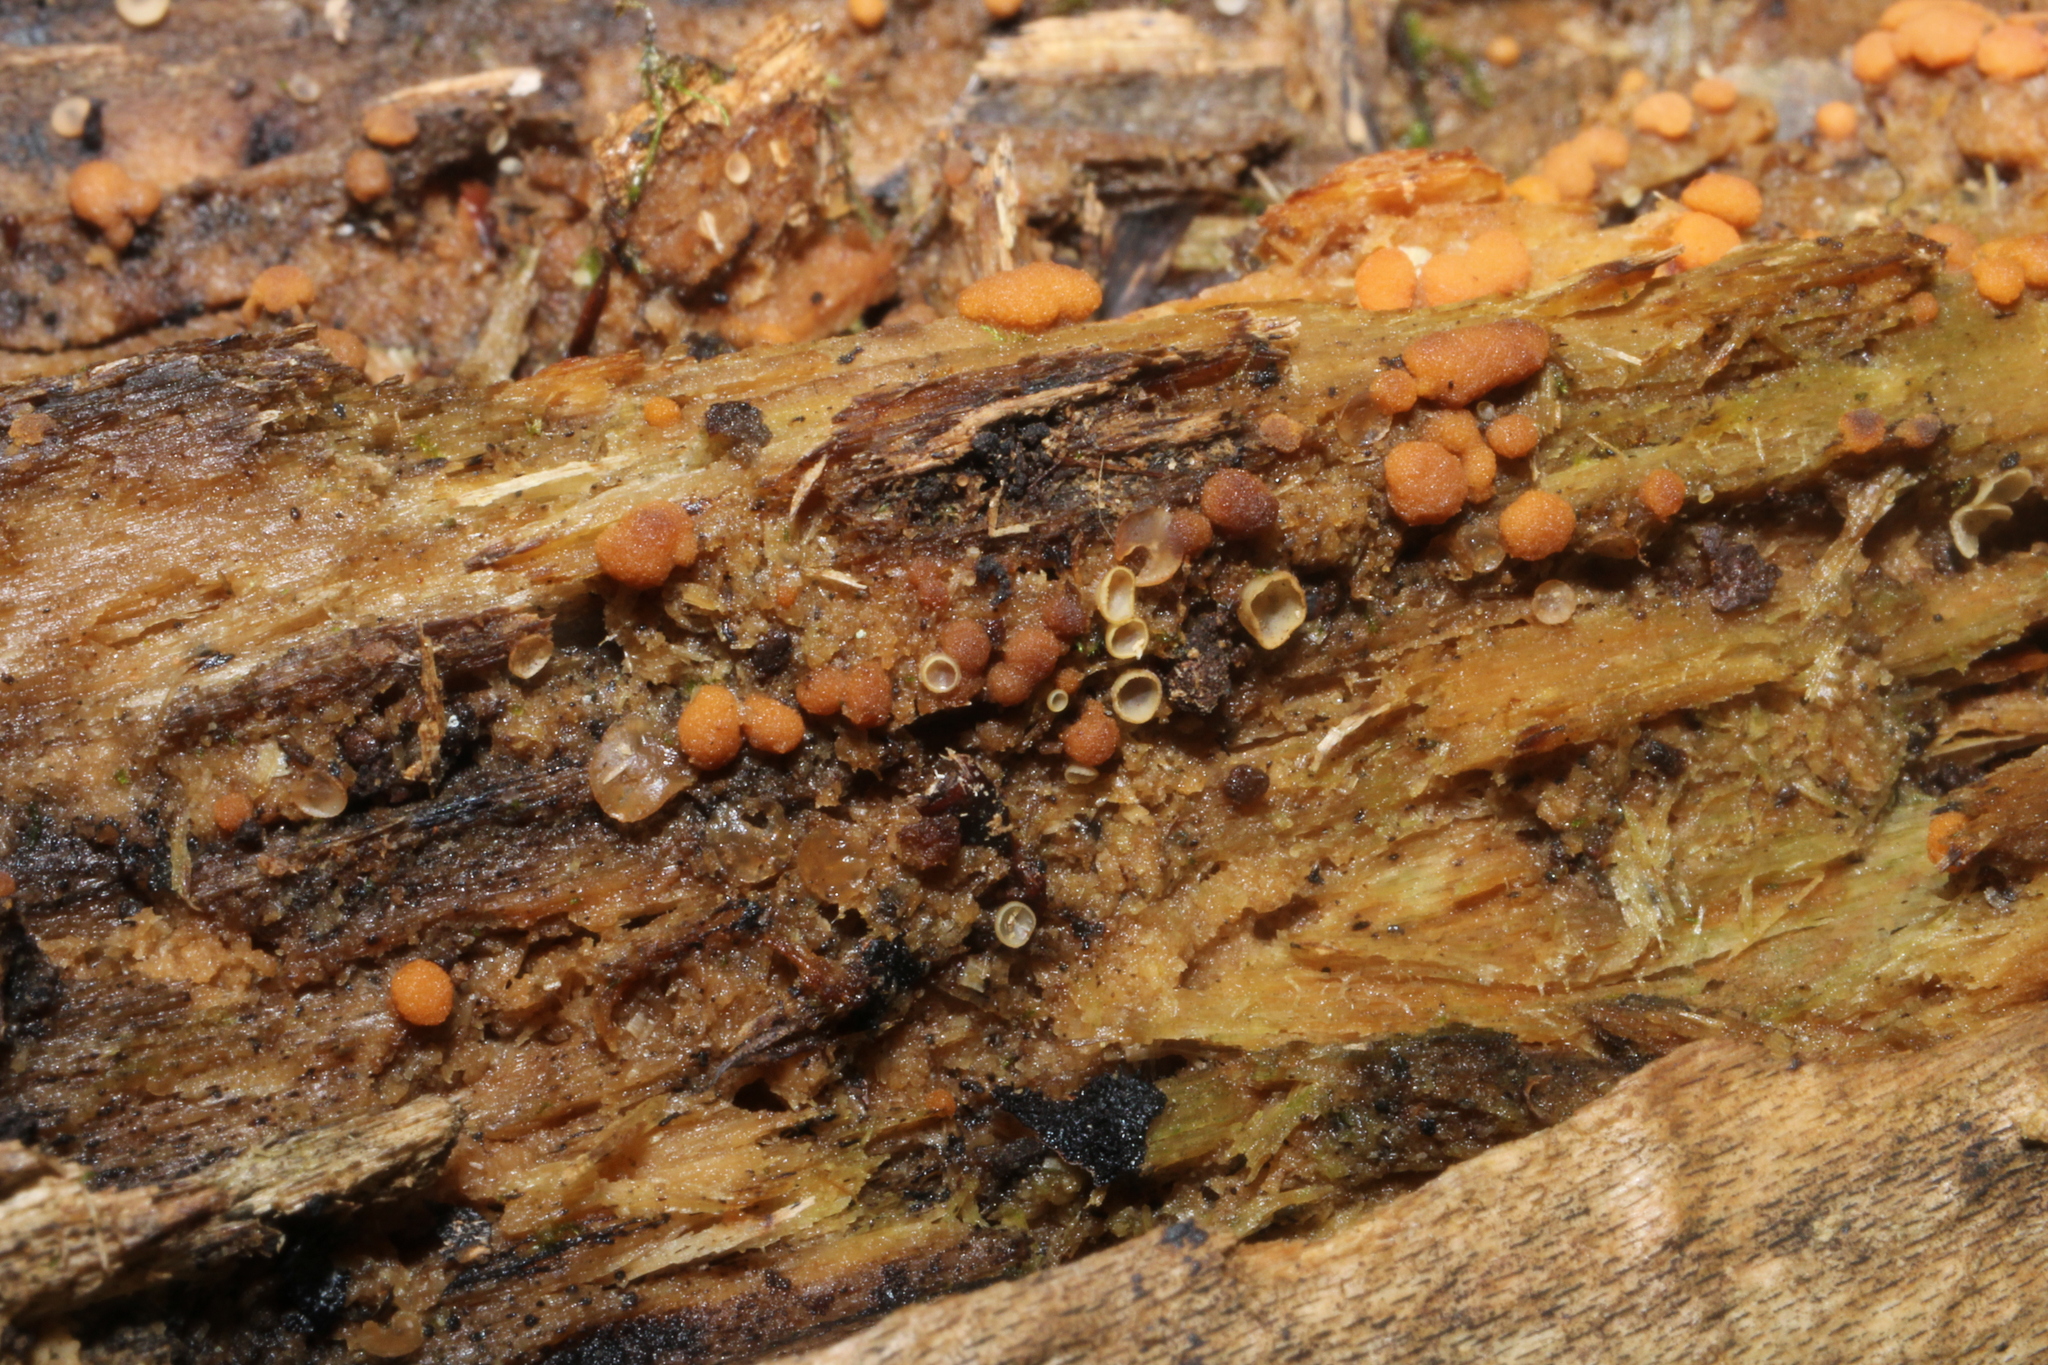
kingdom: Fungi
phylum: Ascomycota
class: Pezizomycetes
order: Pezizales
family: Pyronemataceae
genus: Sphaerosporium
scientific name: Sphaerosporium lignatile
